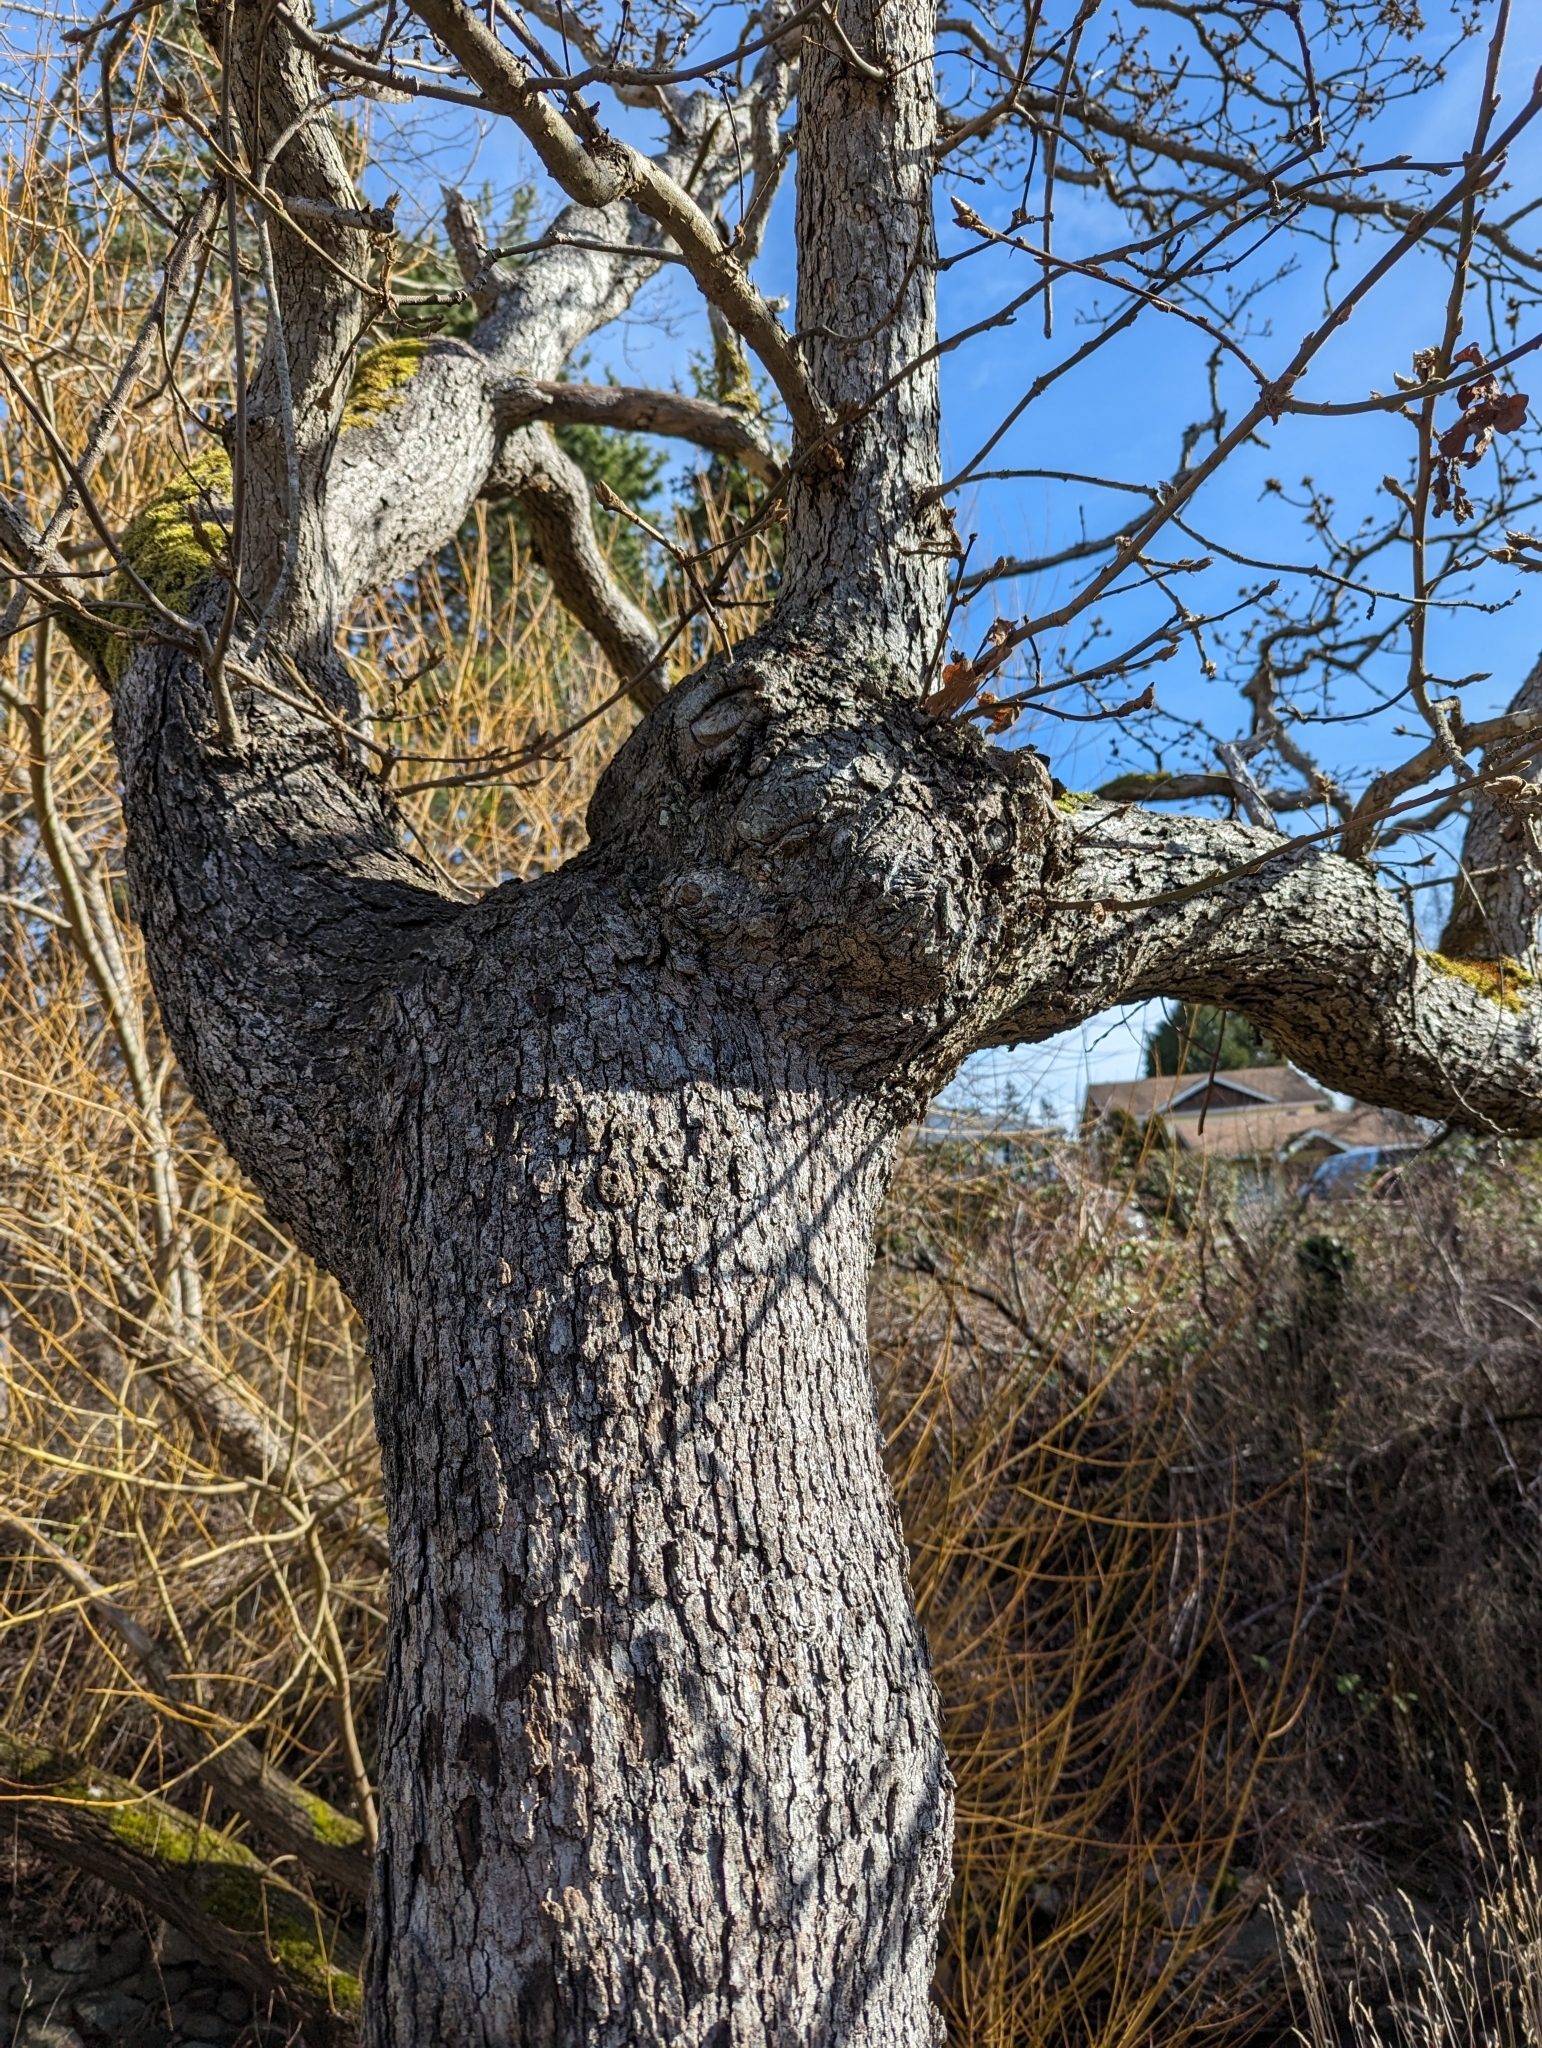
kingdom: Plantae
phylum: Tracheophyta
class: Magnoliopsida
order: Fagales
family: Fagaceae
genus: Quercus
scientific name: Quercus garryana
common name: Garry oak
